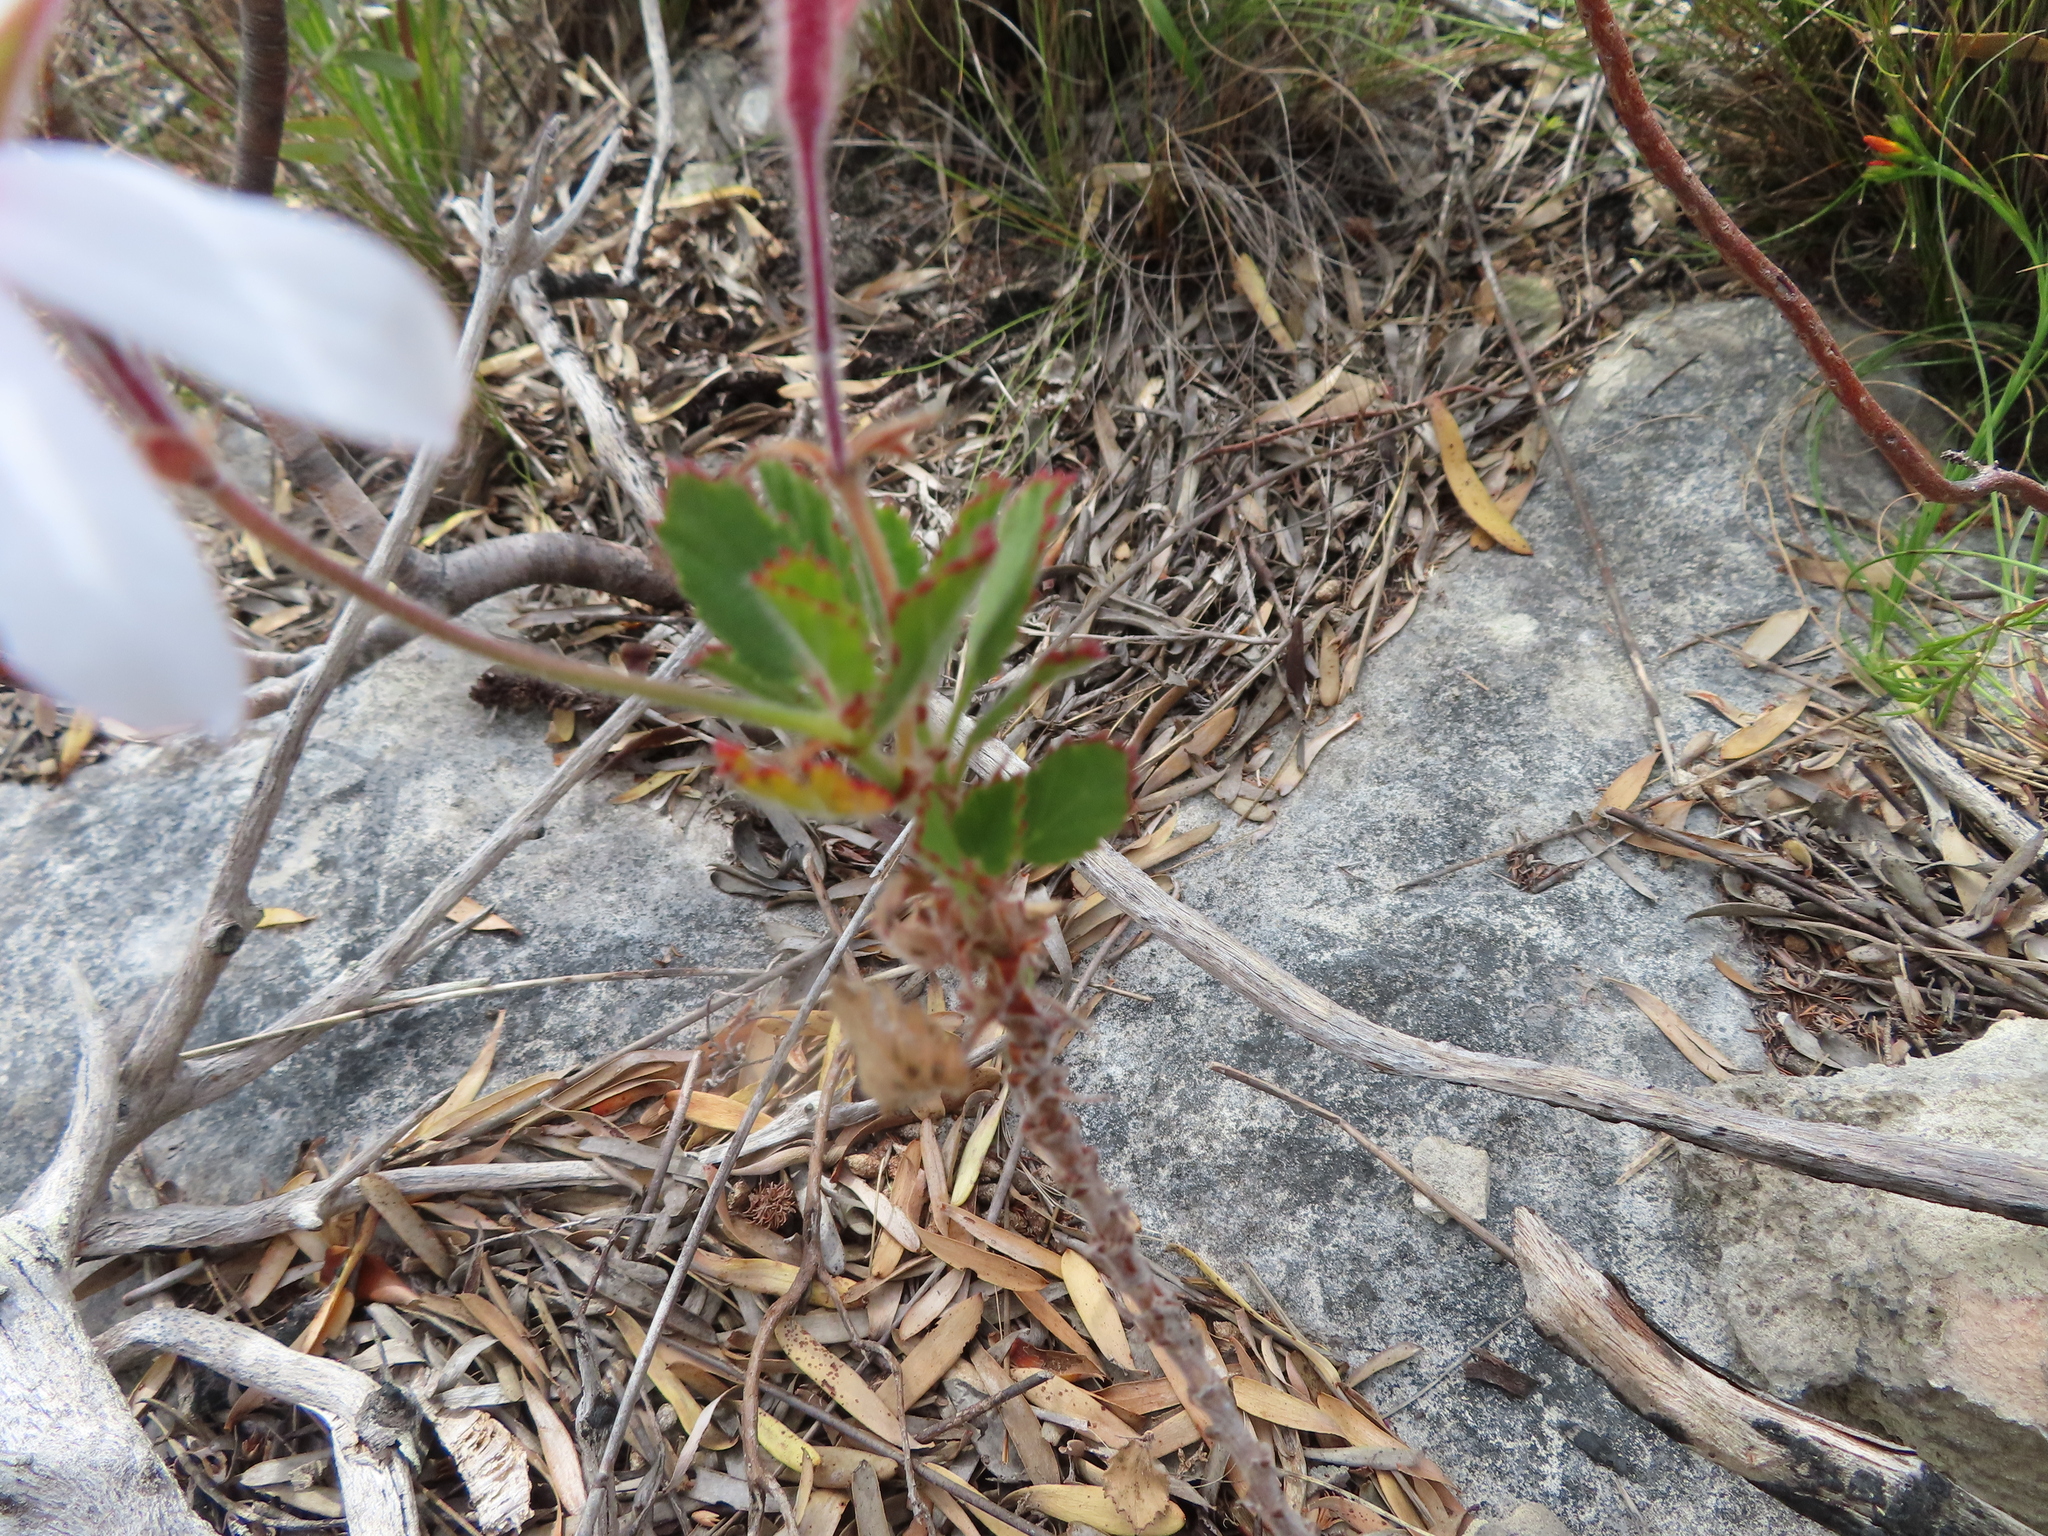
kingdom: Plantae
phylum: Tracheophyta
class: Magnoliopsida
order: Geraniales
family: Geraniaceae
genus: Pelargonium
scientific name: Pelargonium betulinum
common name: Birch-leaf pelargonium
